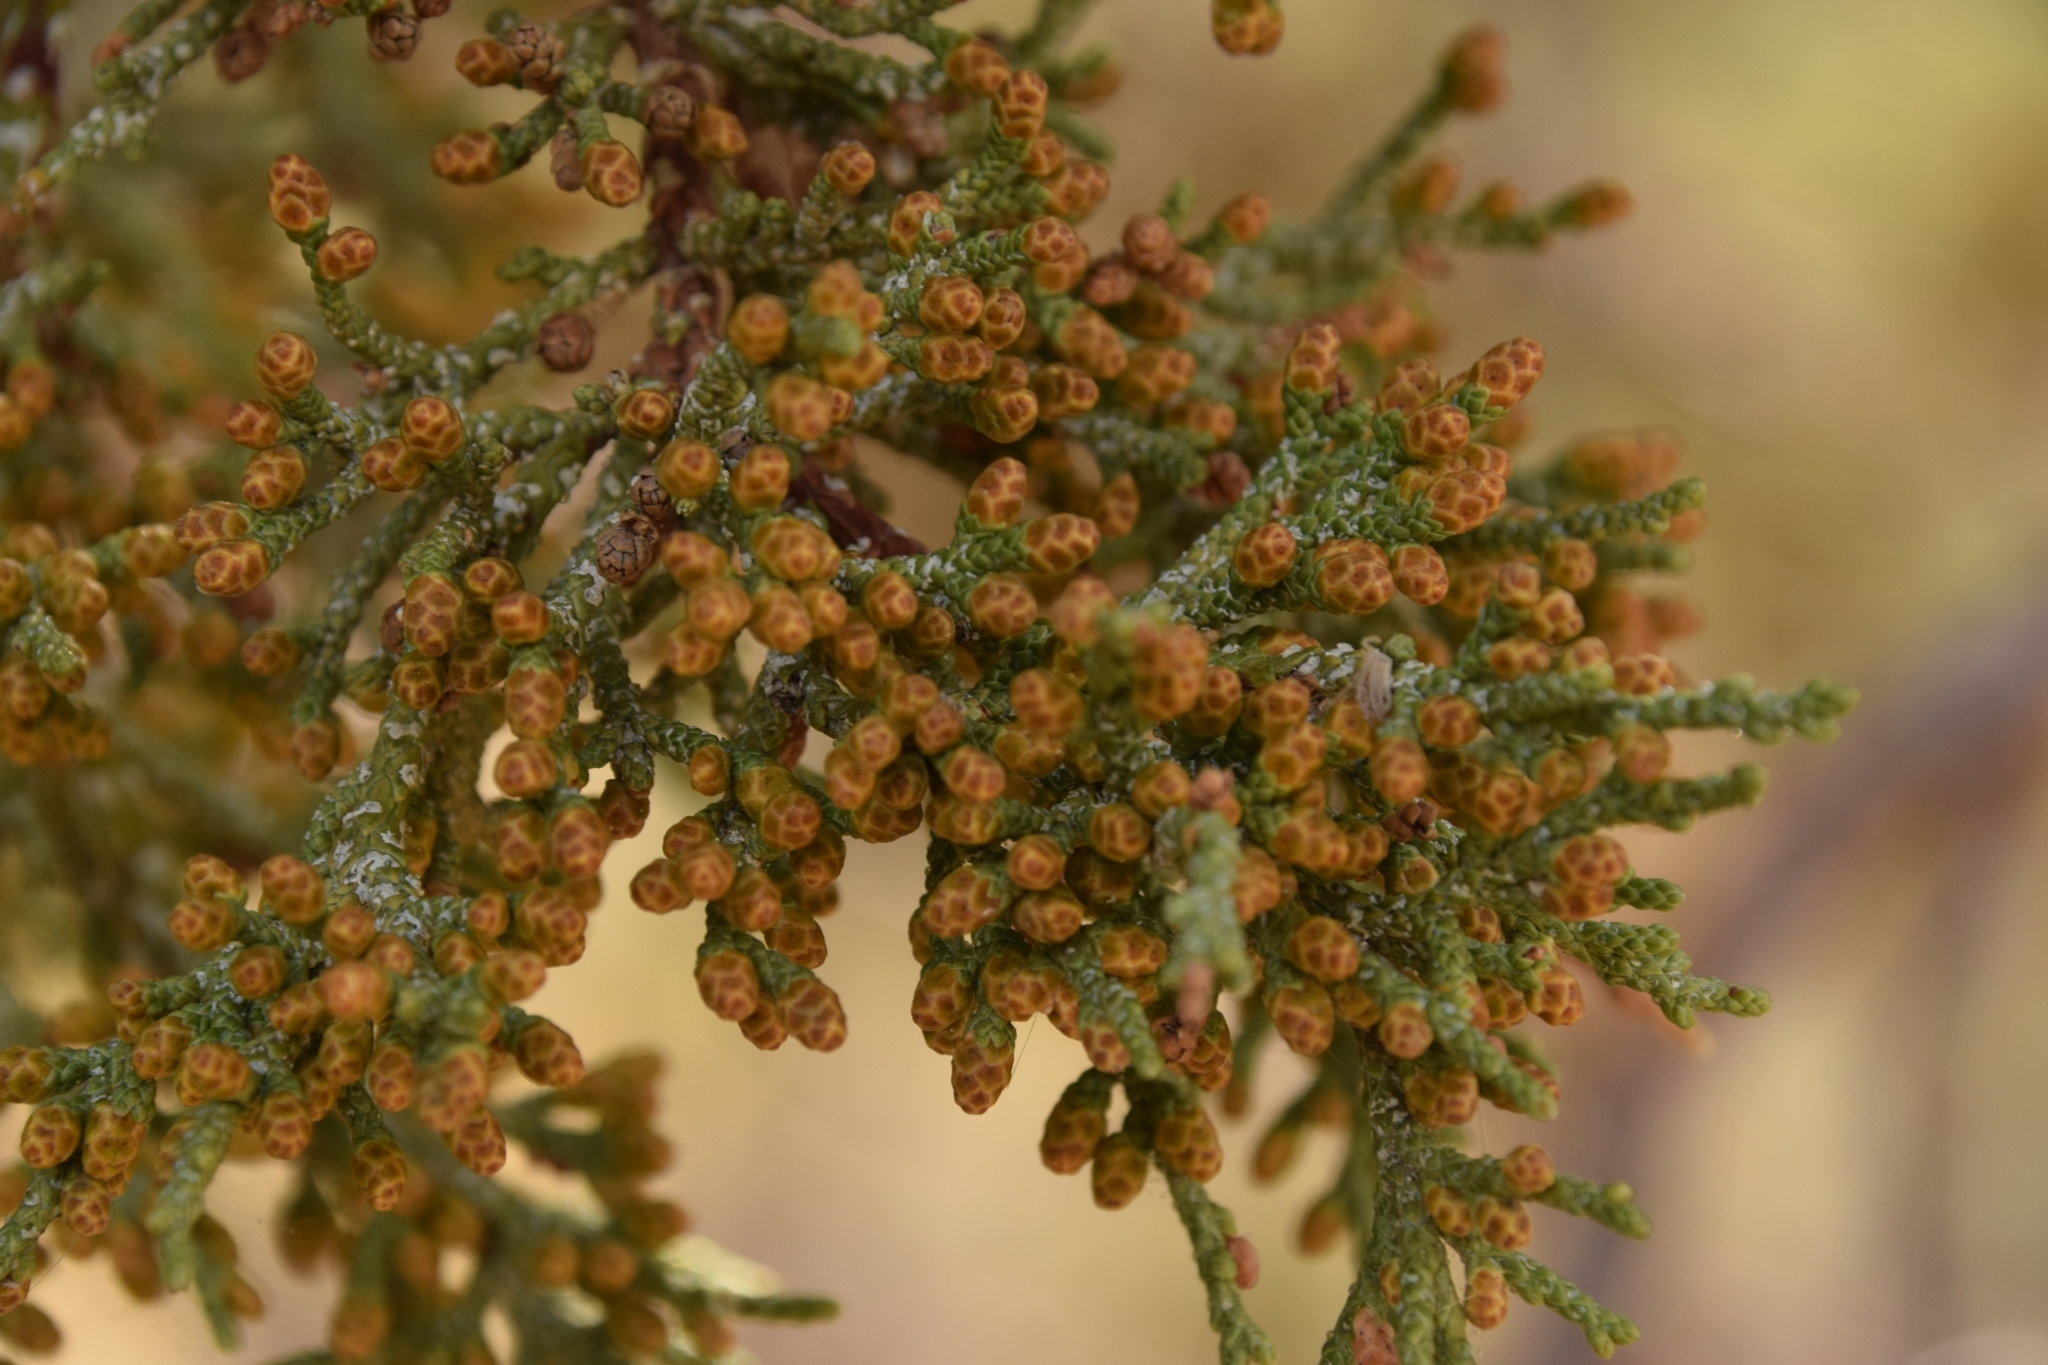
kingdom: Plantae
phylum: Tracheophyta
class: Pinopsida
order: Pinales
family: Cupressaceae
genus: Juniperus
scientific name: Juniperus occidentalis
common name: Western juniper
